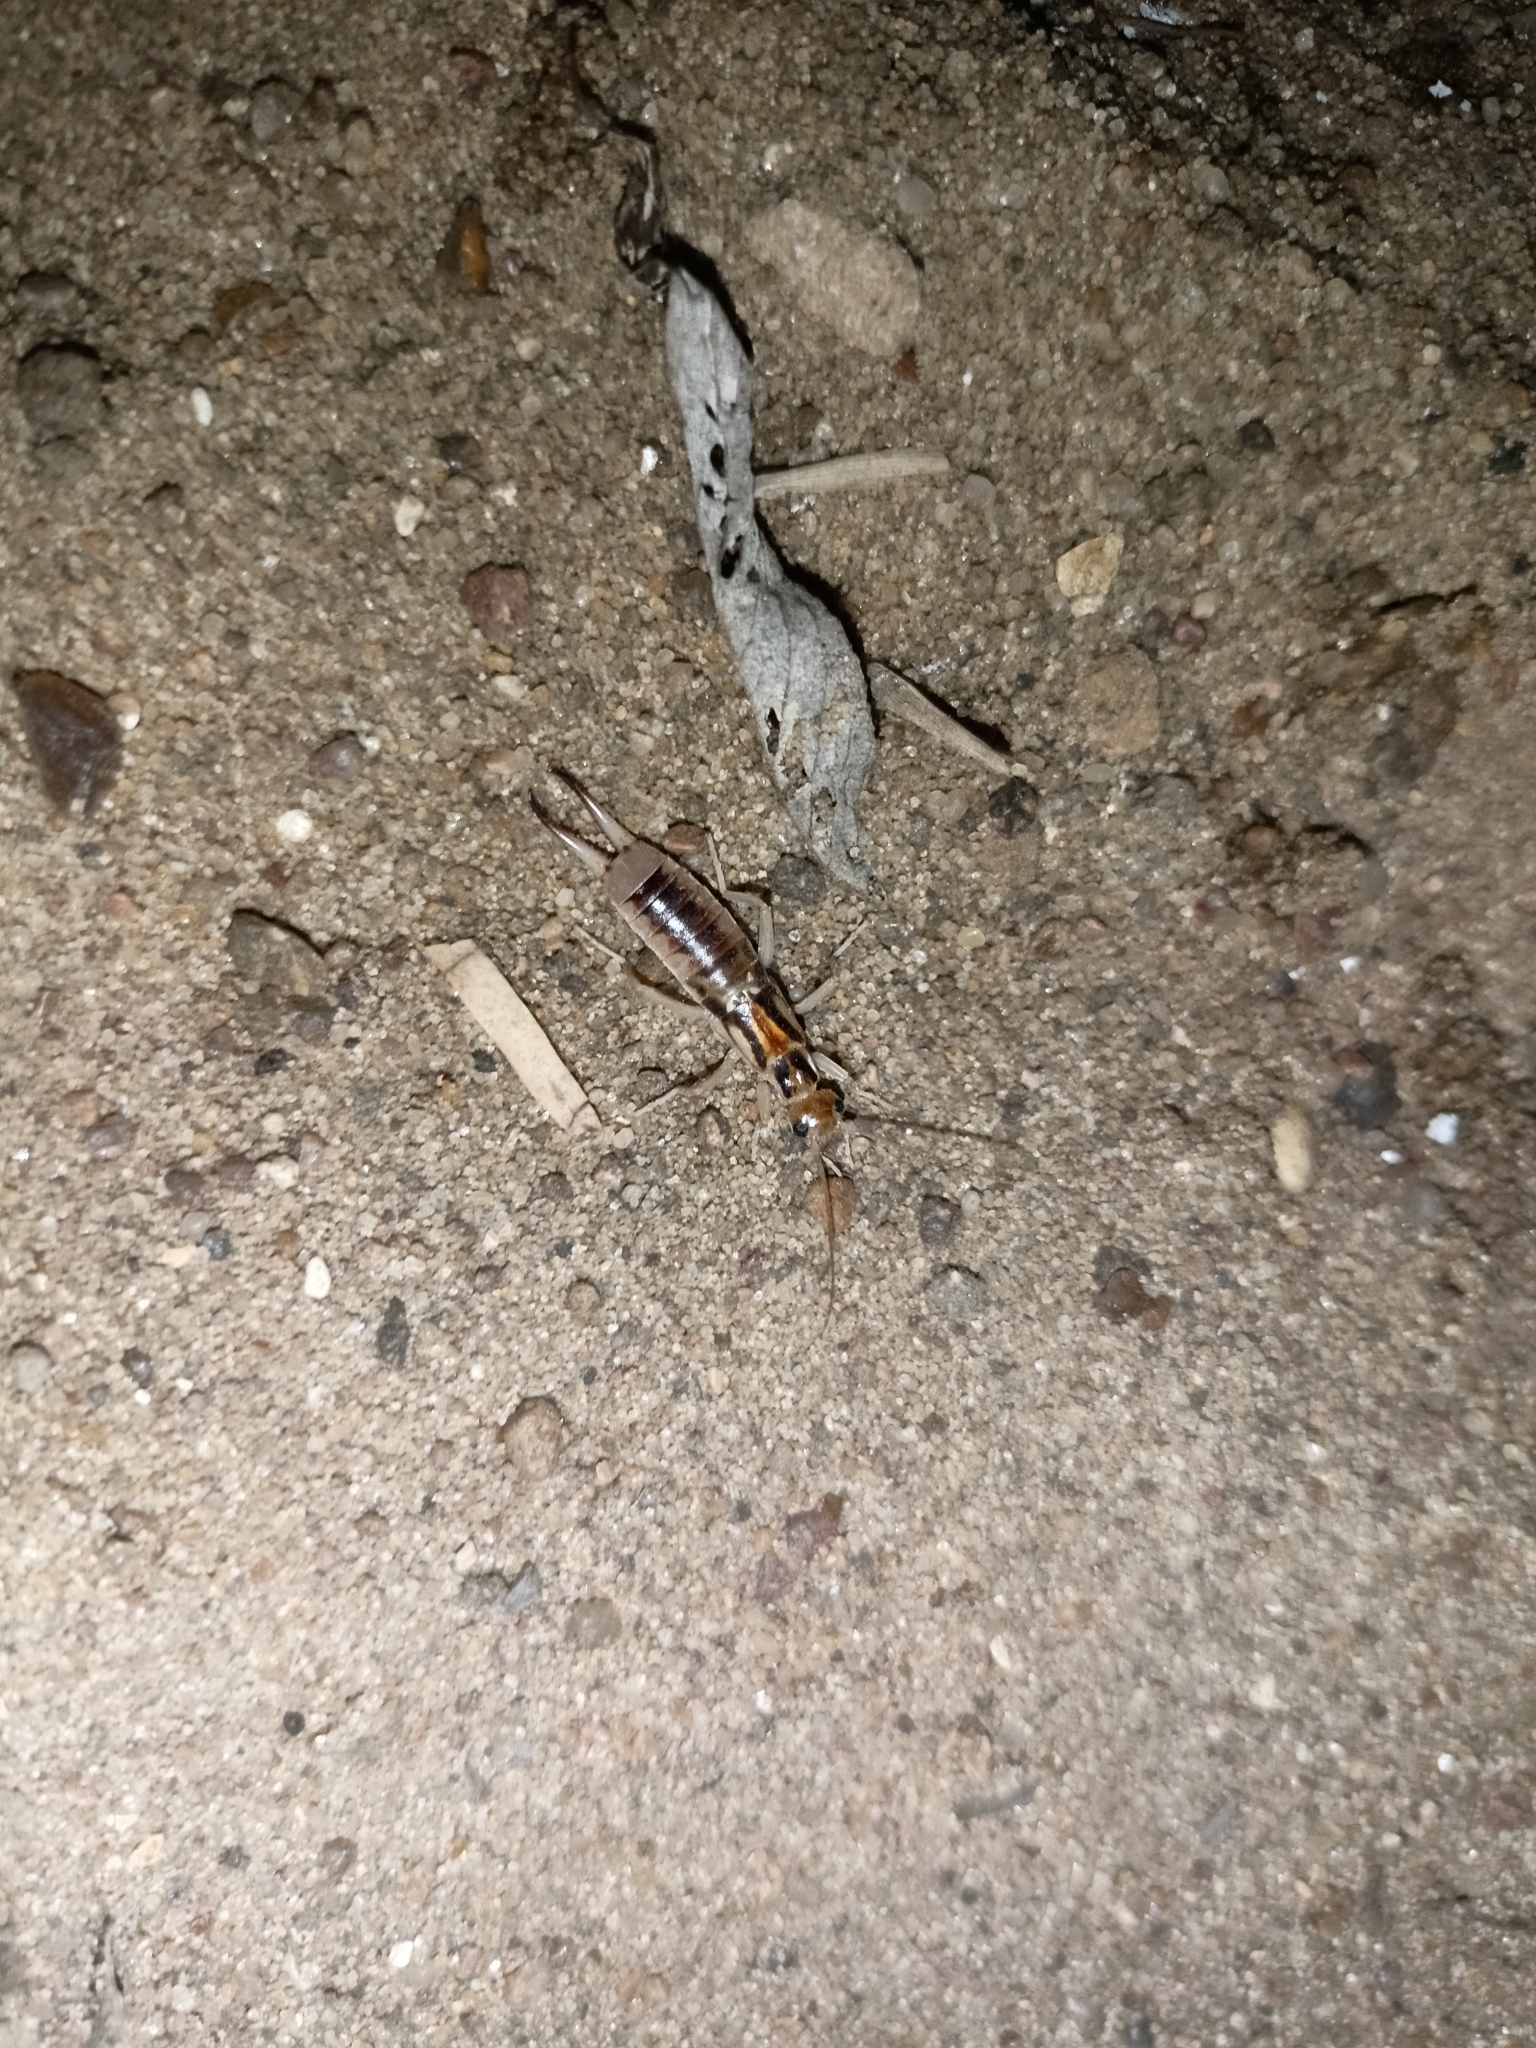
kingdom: Animalia
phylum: Arthropoda
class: Insecta
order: Dermaptera
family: Labiduridae
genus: Labidura
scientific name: Labidura riparia
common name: Striped earwig
